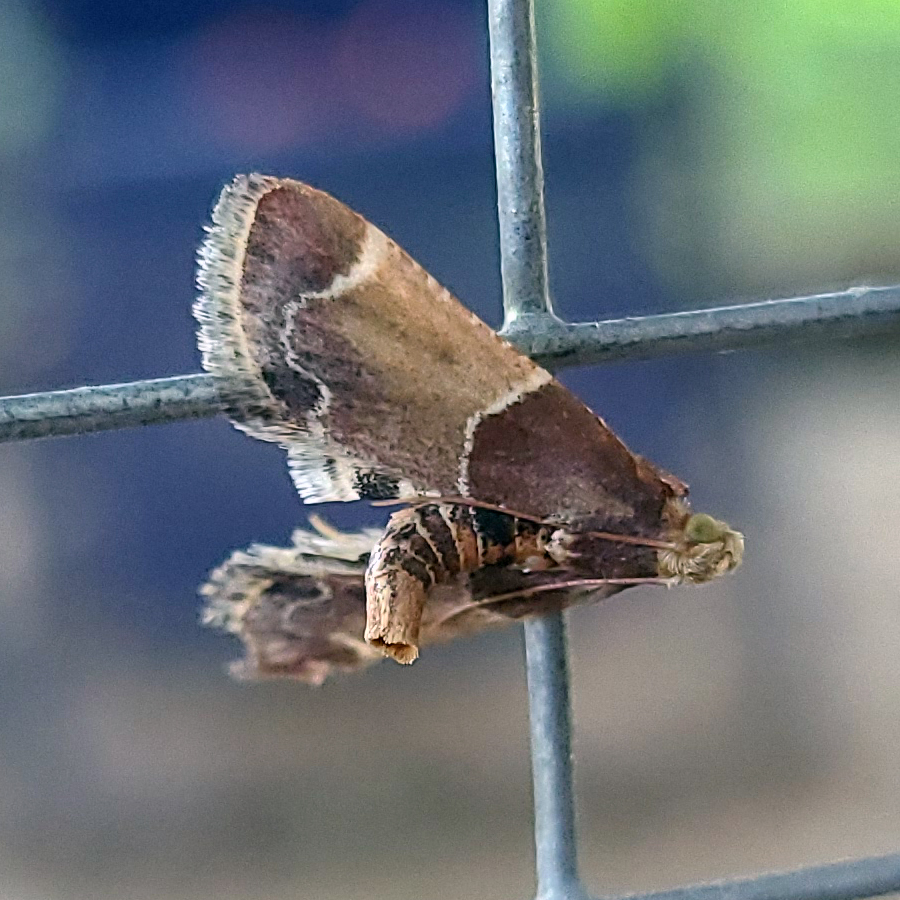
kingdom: Animalia
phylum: Arthropoda
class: Insecta
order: Lepidoptera
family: Pyralidae
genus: Pyralis
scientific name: Pyralis farinalis
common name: Meal moth
